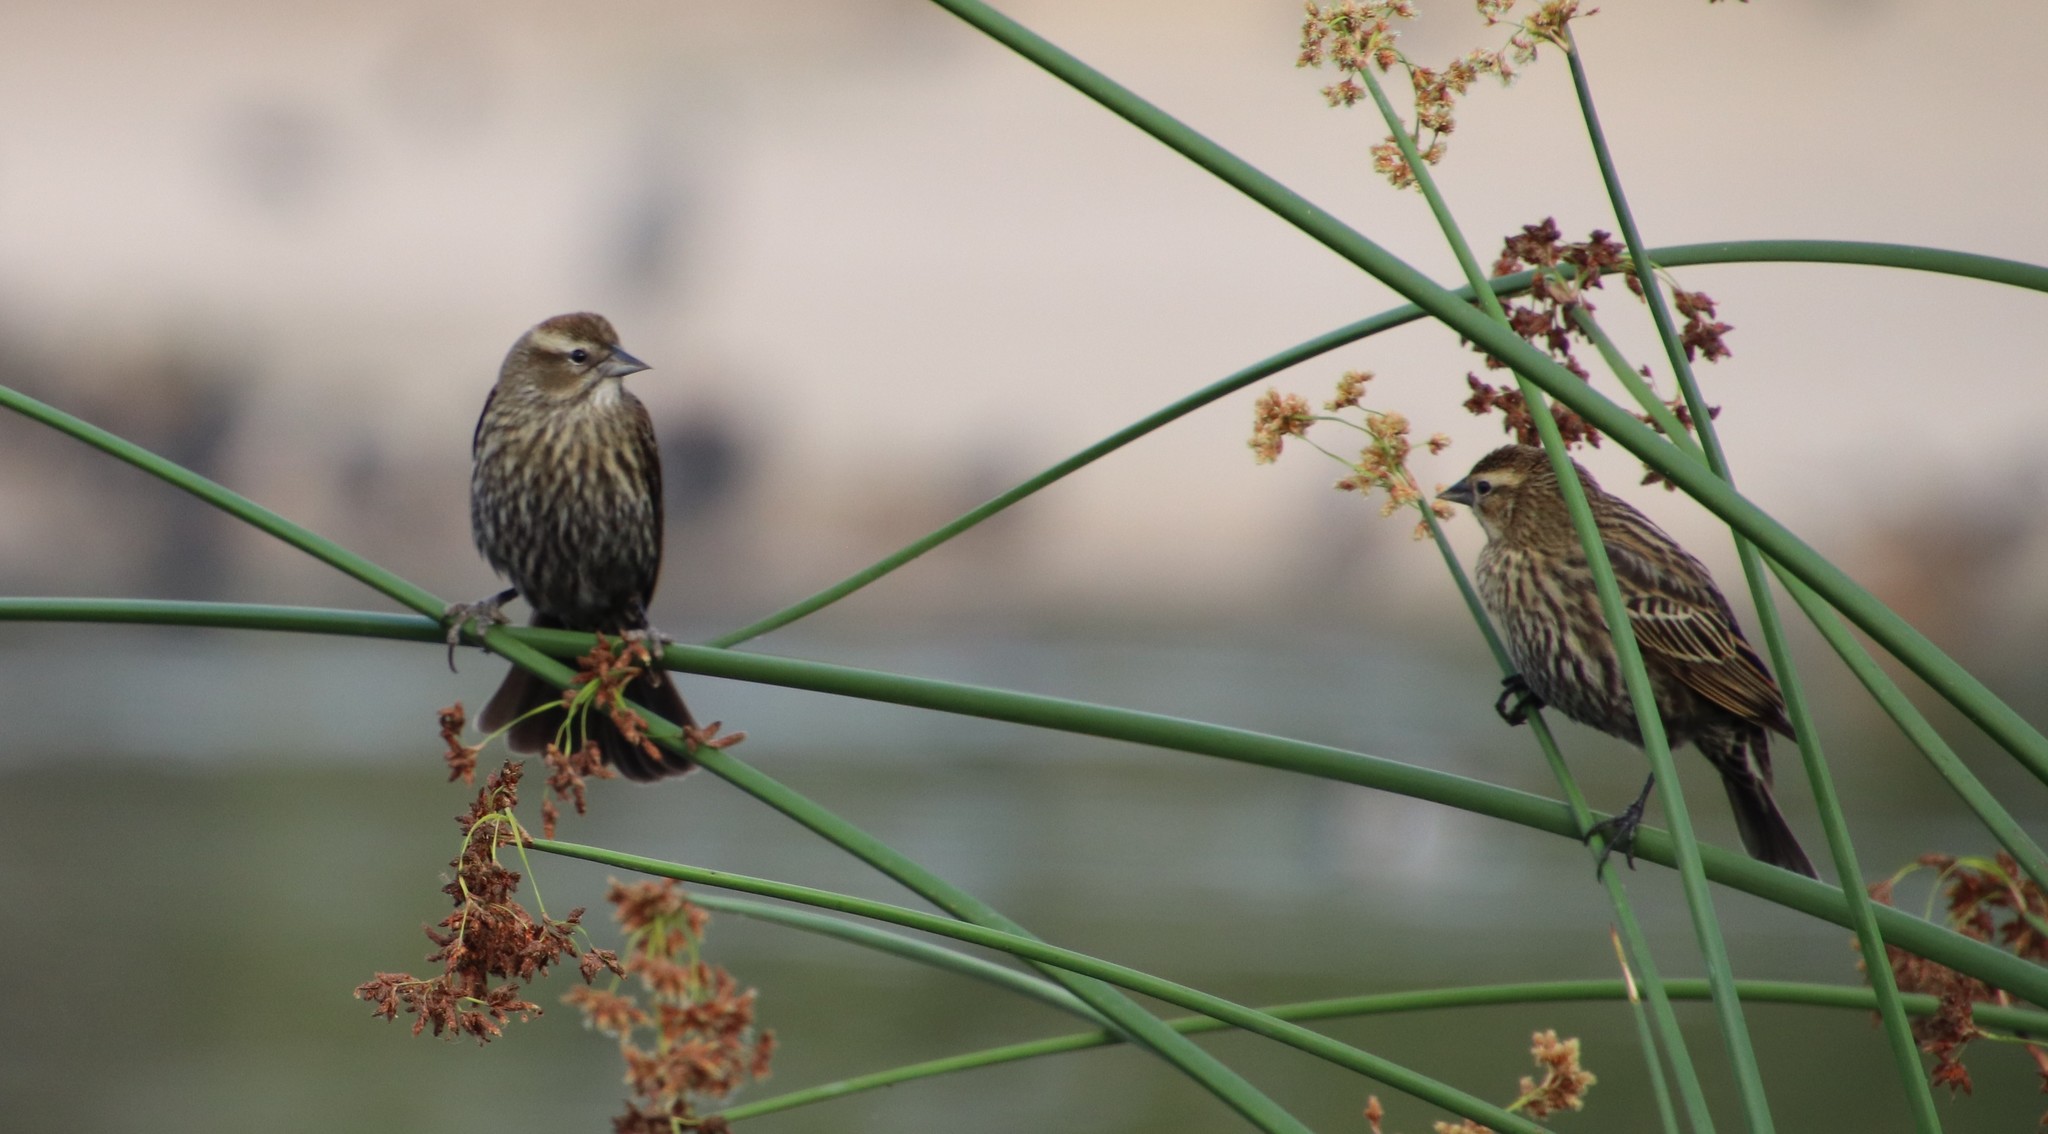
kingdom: Animalia
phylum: Chordata
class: Aves
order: Passeriformes
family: Icteridae
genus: Agelaius
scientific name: Agelaius phoeniceus
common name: Red-winged blackbird
